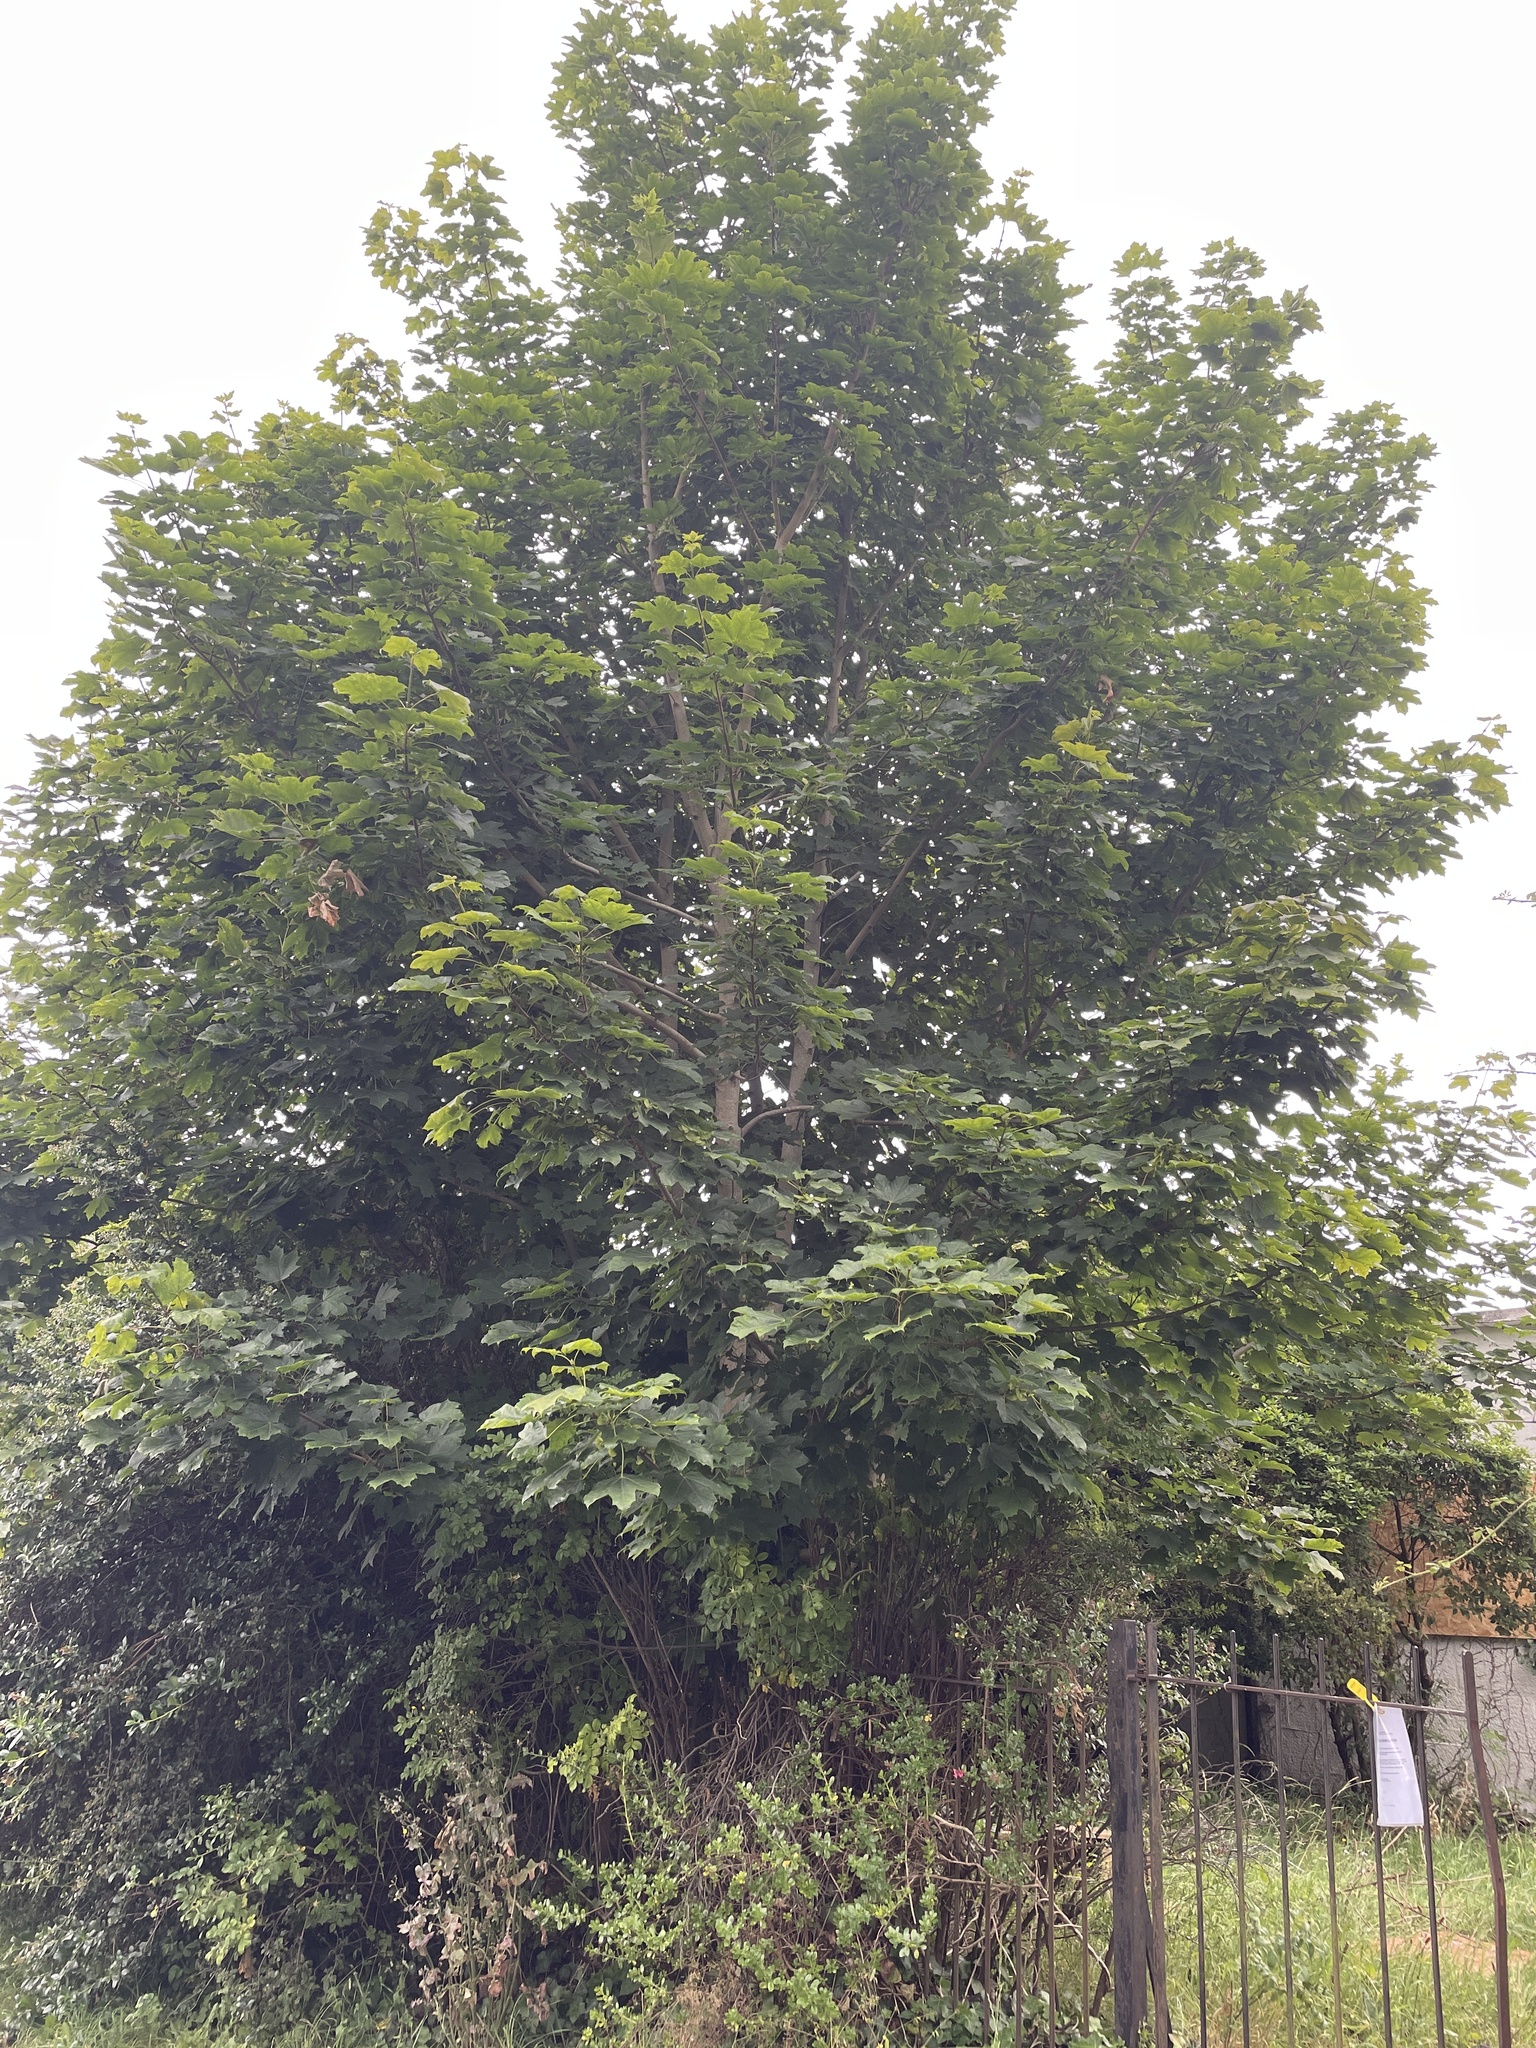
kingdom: Plantae
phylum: Tracheophyta
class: Magnoliopsida
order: Sapindales
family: Sapindaceae
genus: Acer
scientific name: Acer platanoides
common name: Norway maple
